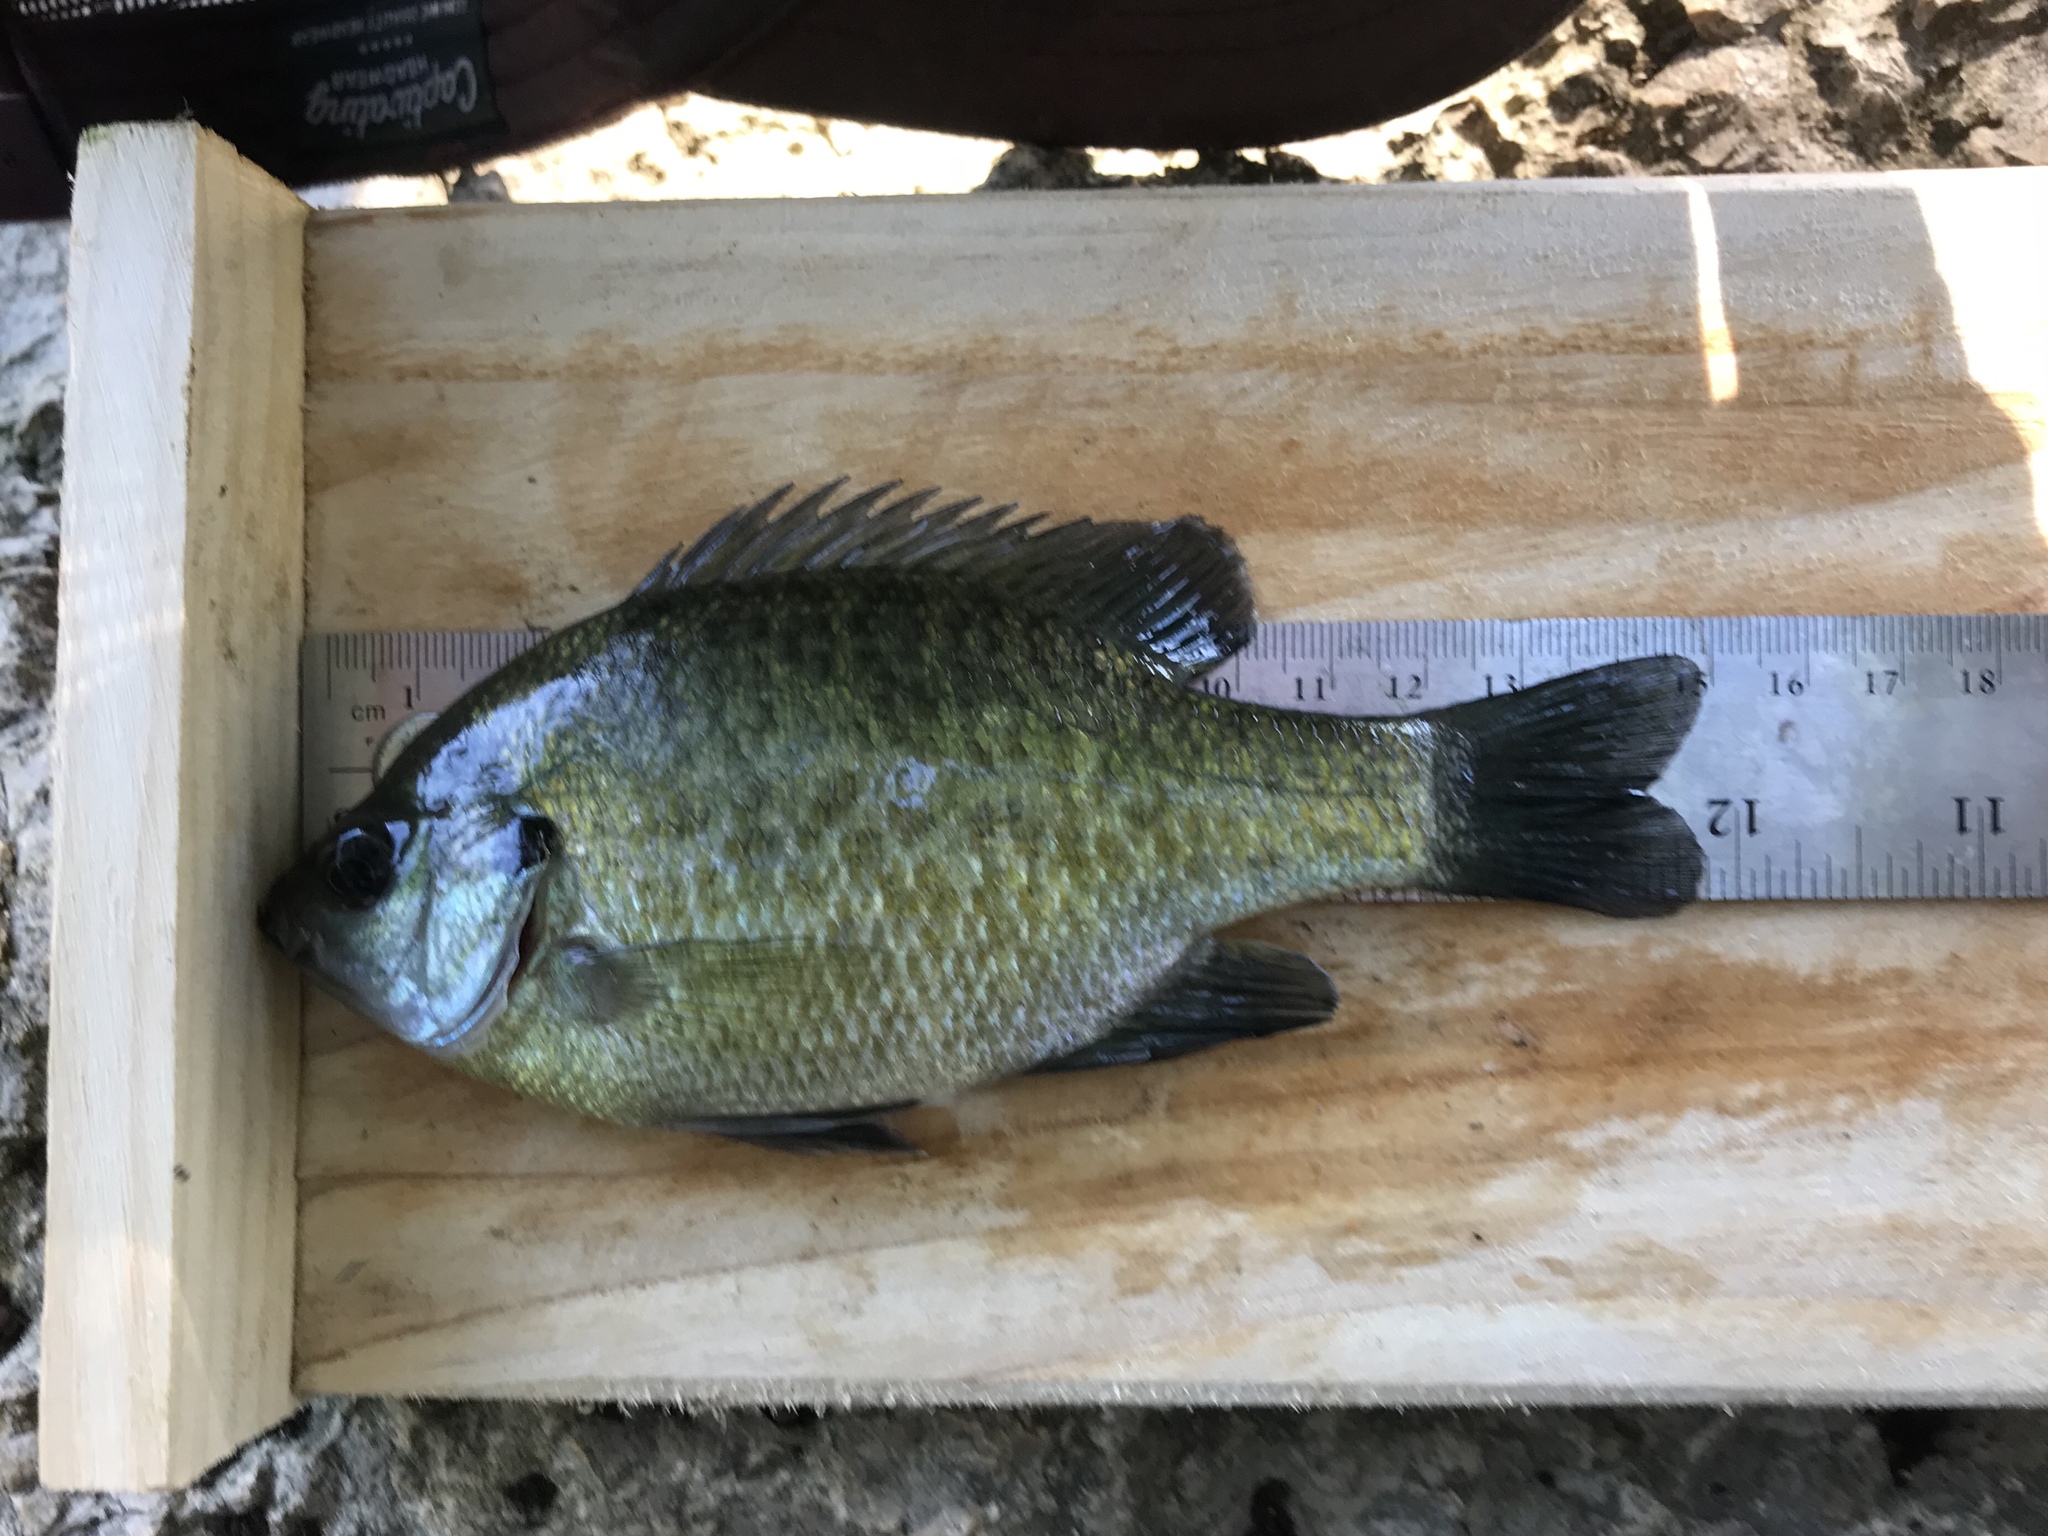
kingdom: Animalia
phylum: Chordata
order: Perciformes
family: Centrarchidae
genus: Lepomis
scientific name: Lepomis macrochirus
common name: Bluegill
